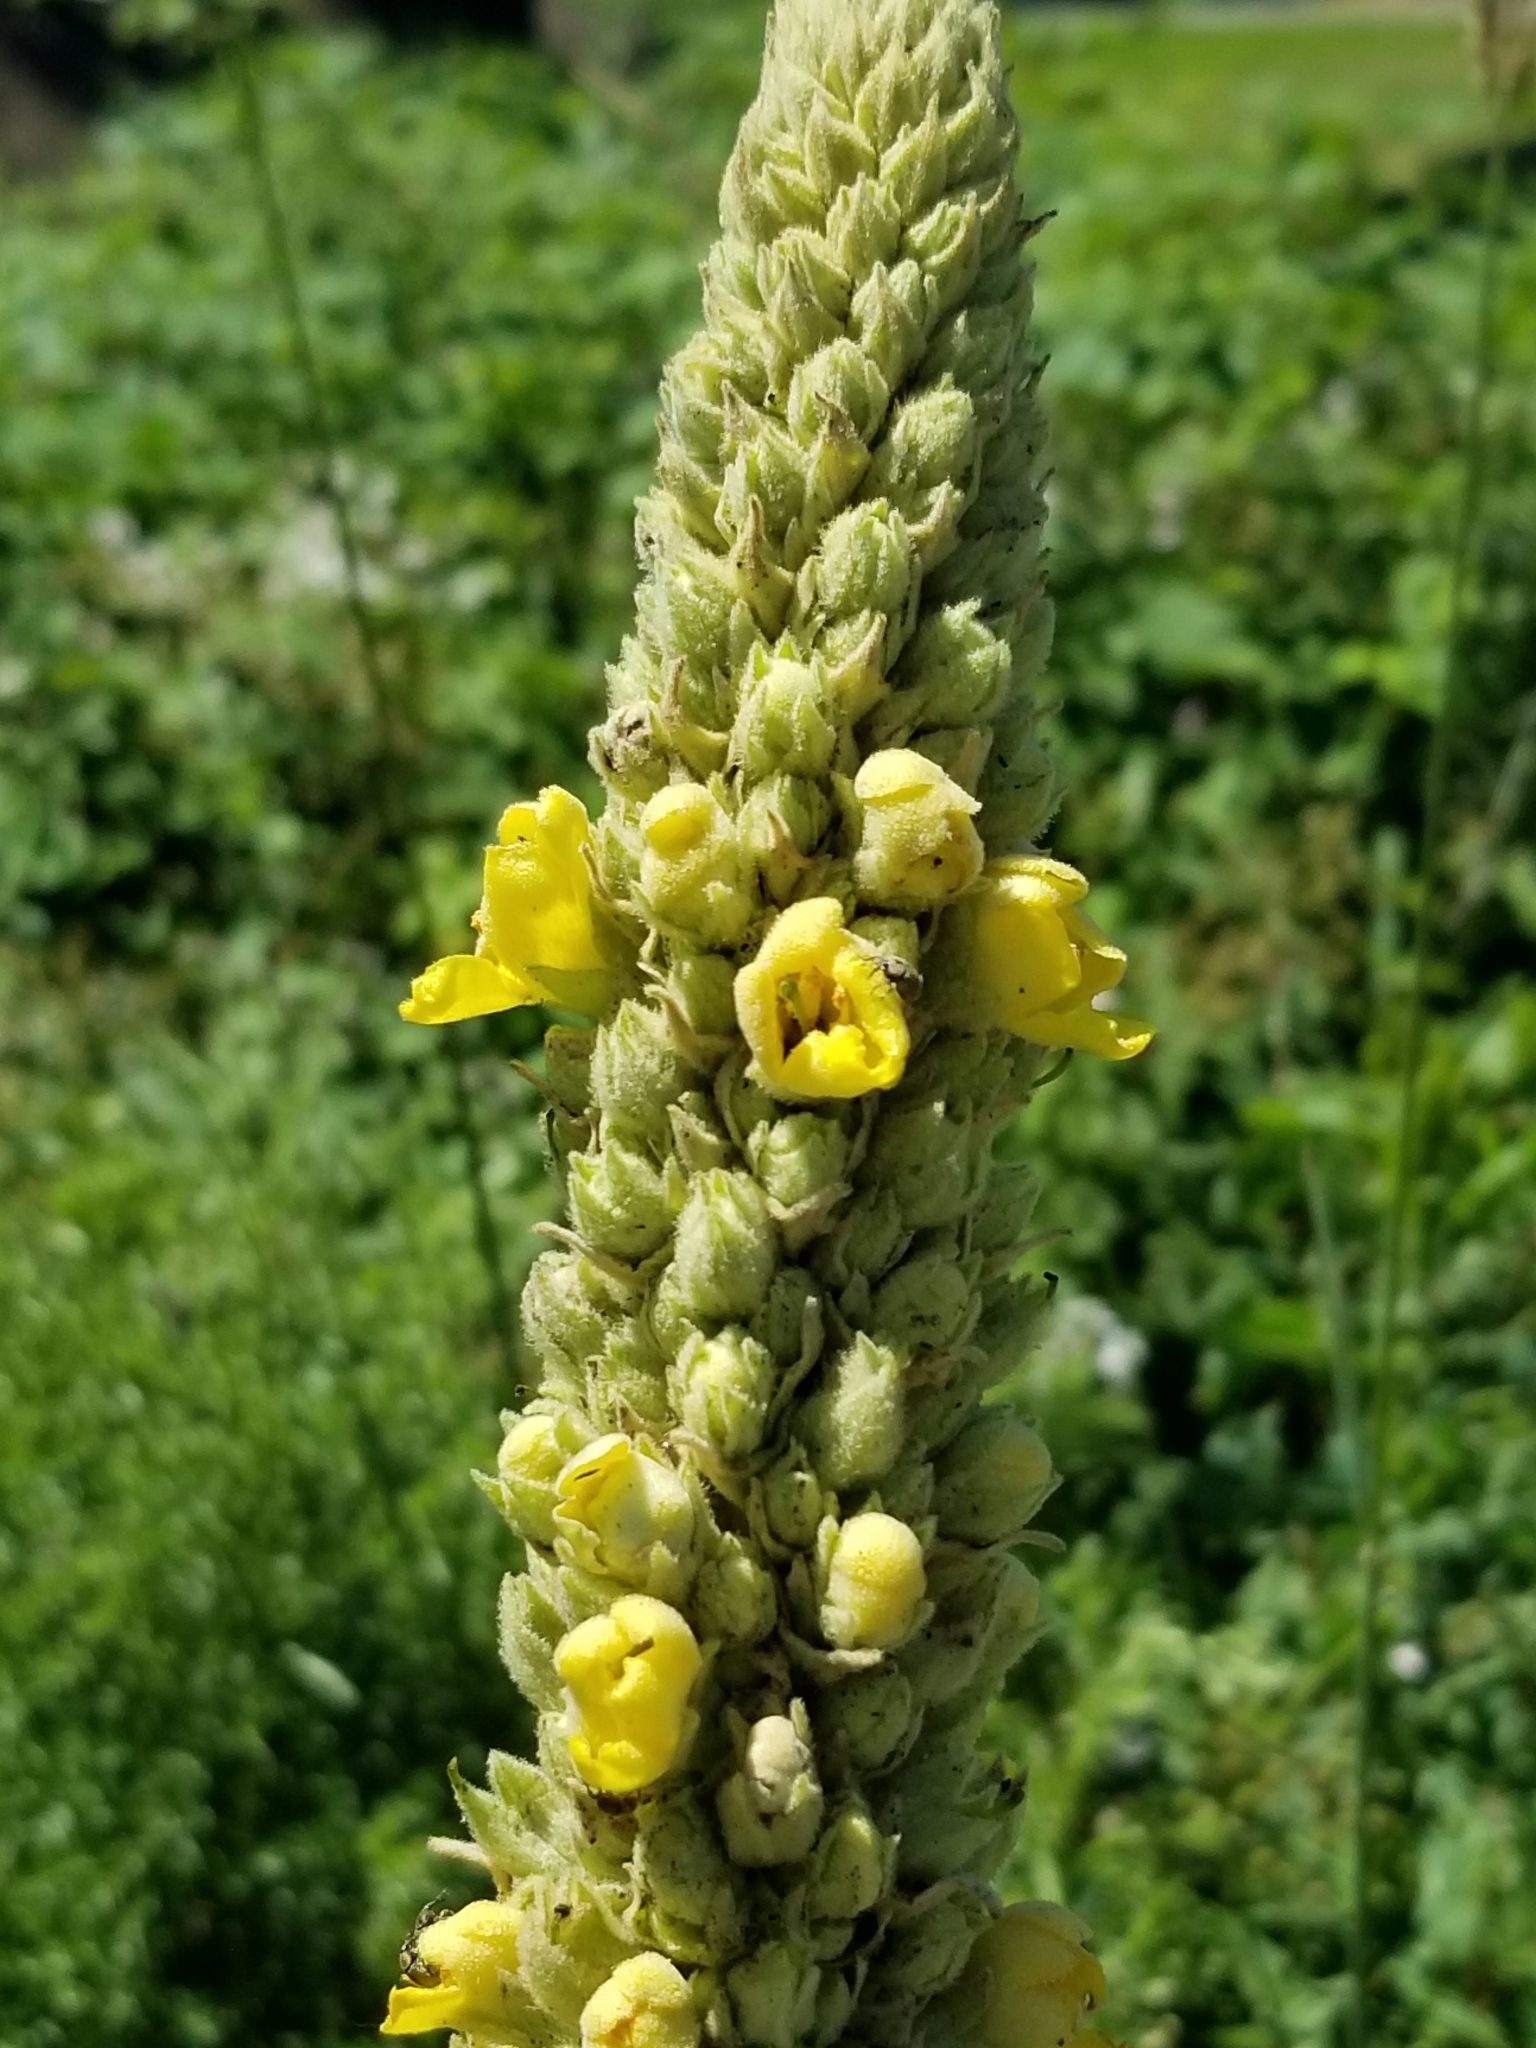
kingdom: Plantae
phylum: Tracheophyta
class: Magnoliopsida
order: Lamiales
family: Scrophulariaceae
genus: Verbascum
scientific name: Verbascum thapsus
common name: Common mullein
